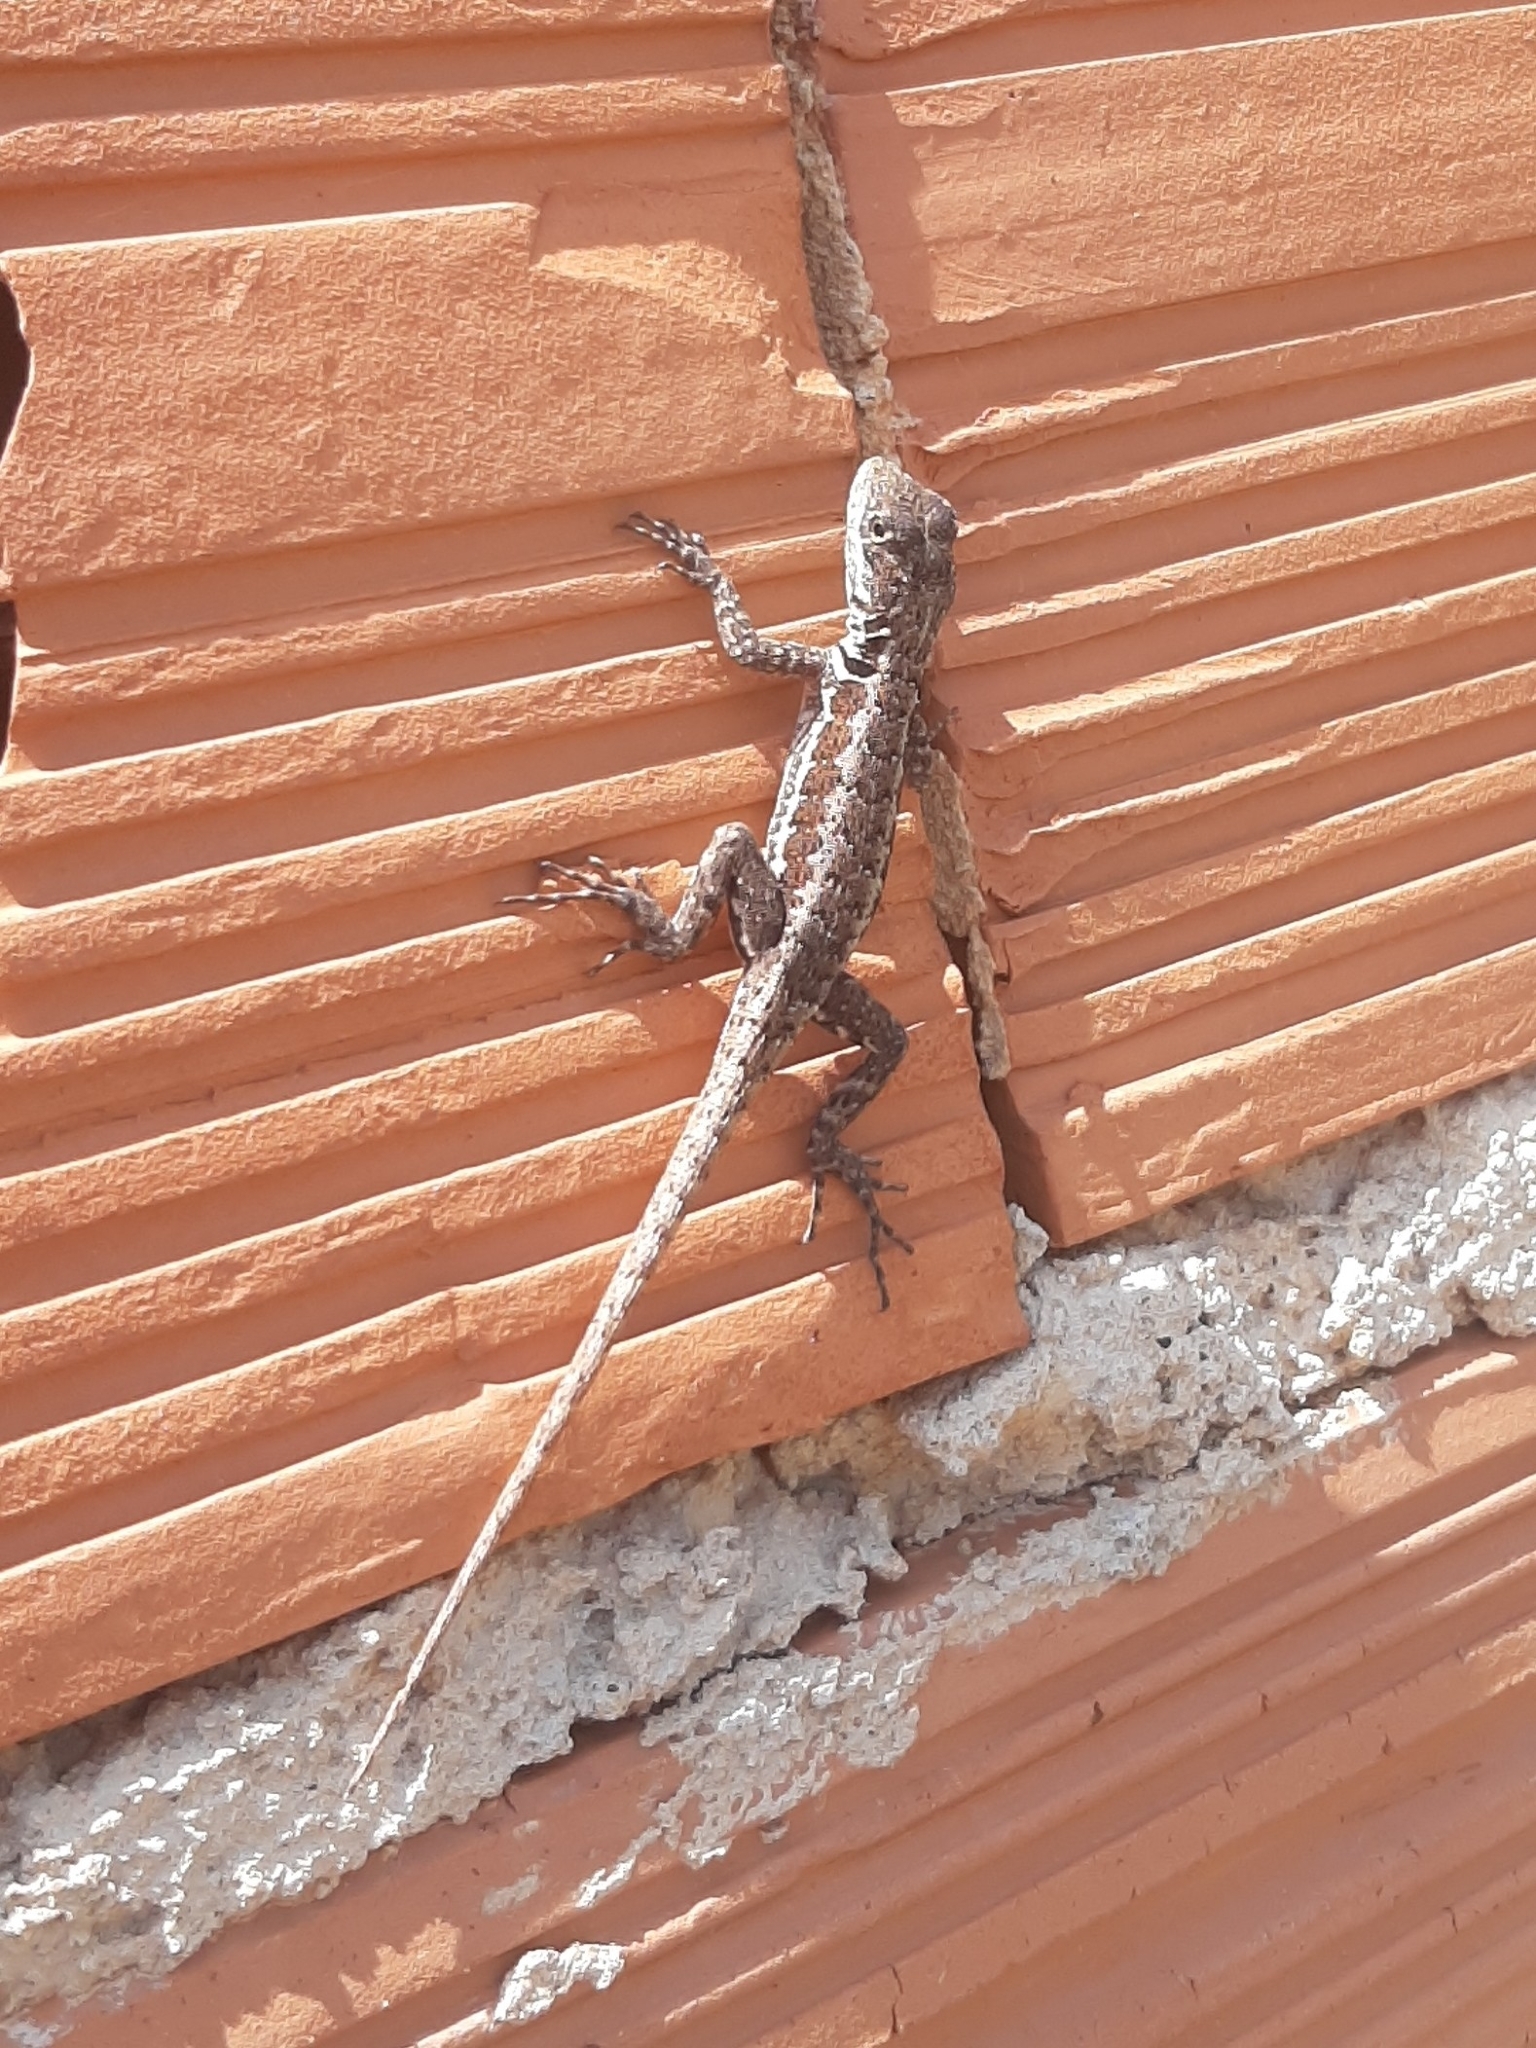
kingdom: Animalia
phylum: Chordata
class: Squamata
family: Tropiduridae
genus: Tropidurus
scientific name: Tropidurus torquatus
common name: Amazon lava lizard
